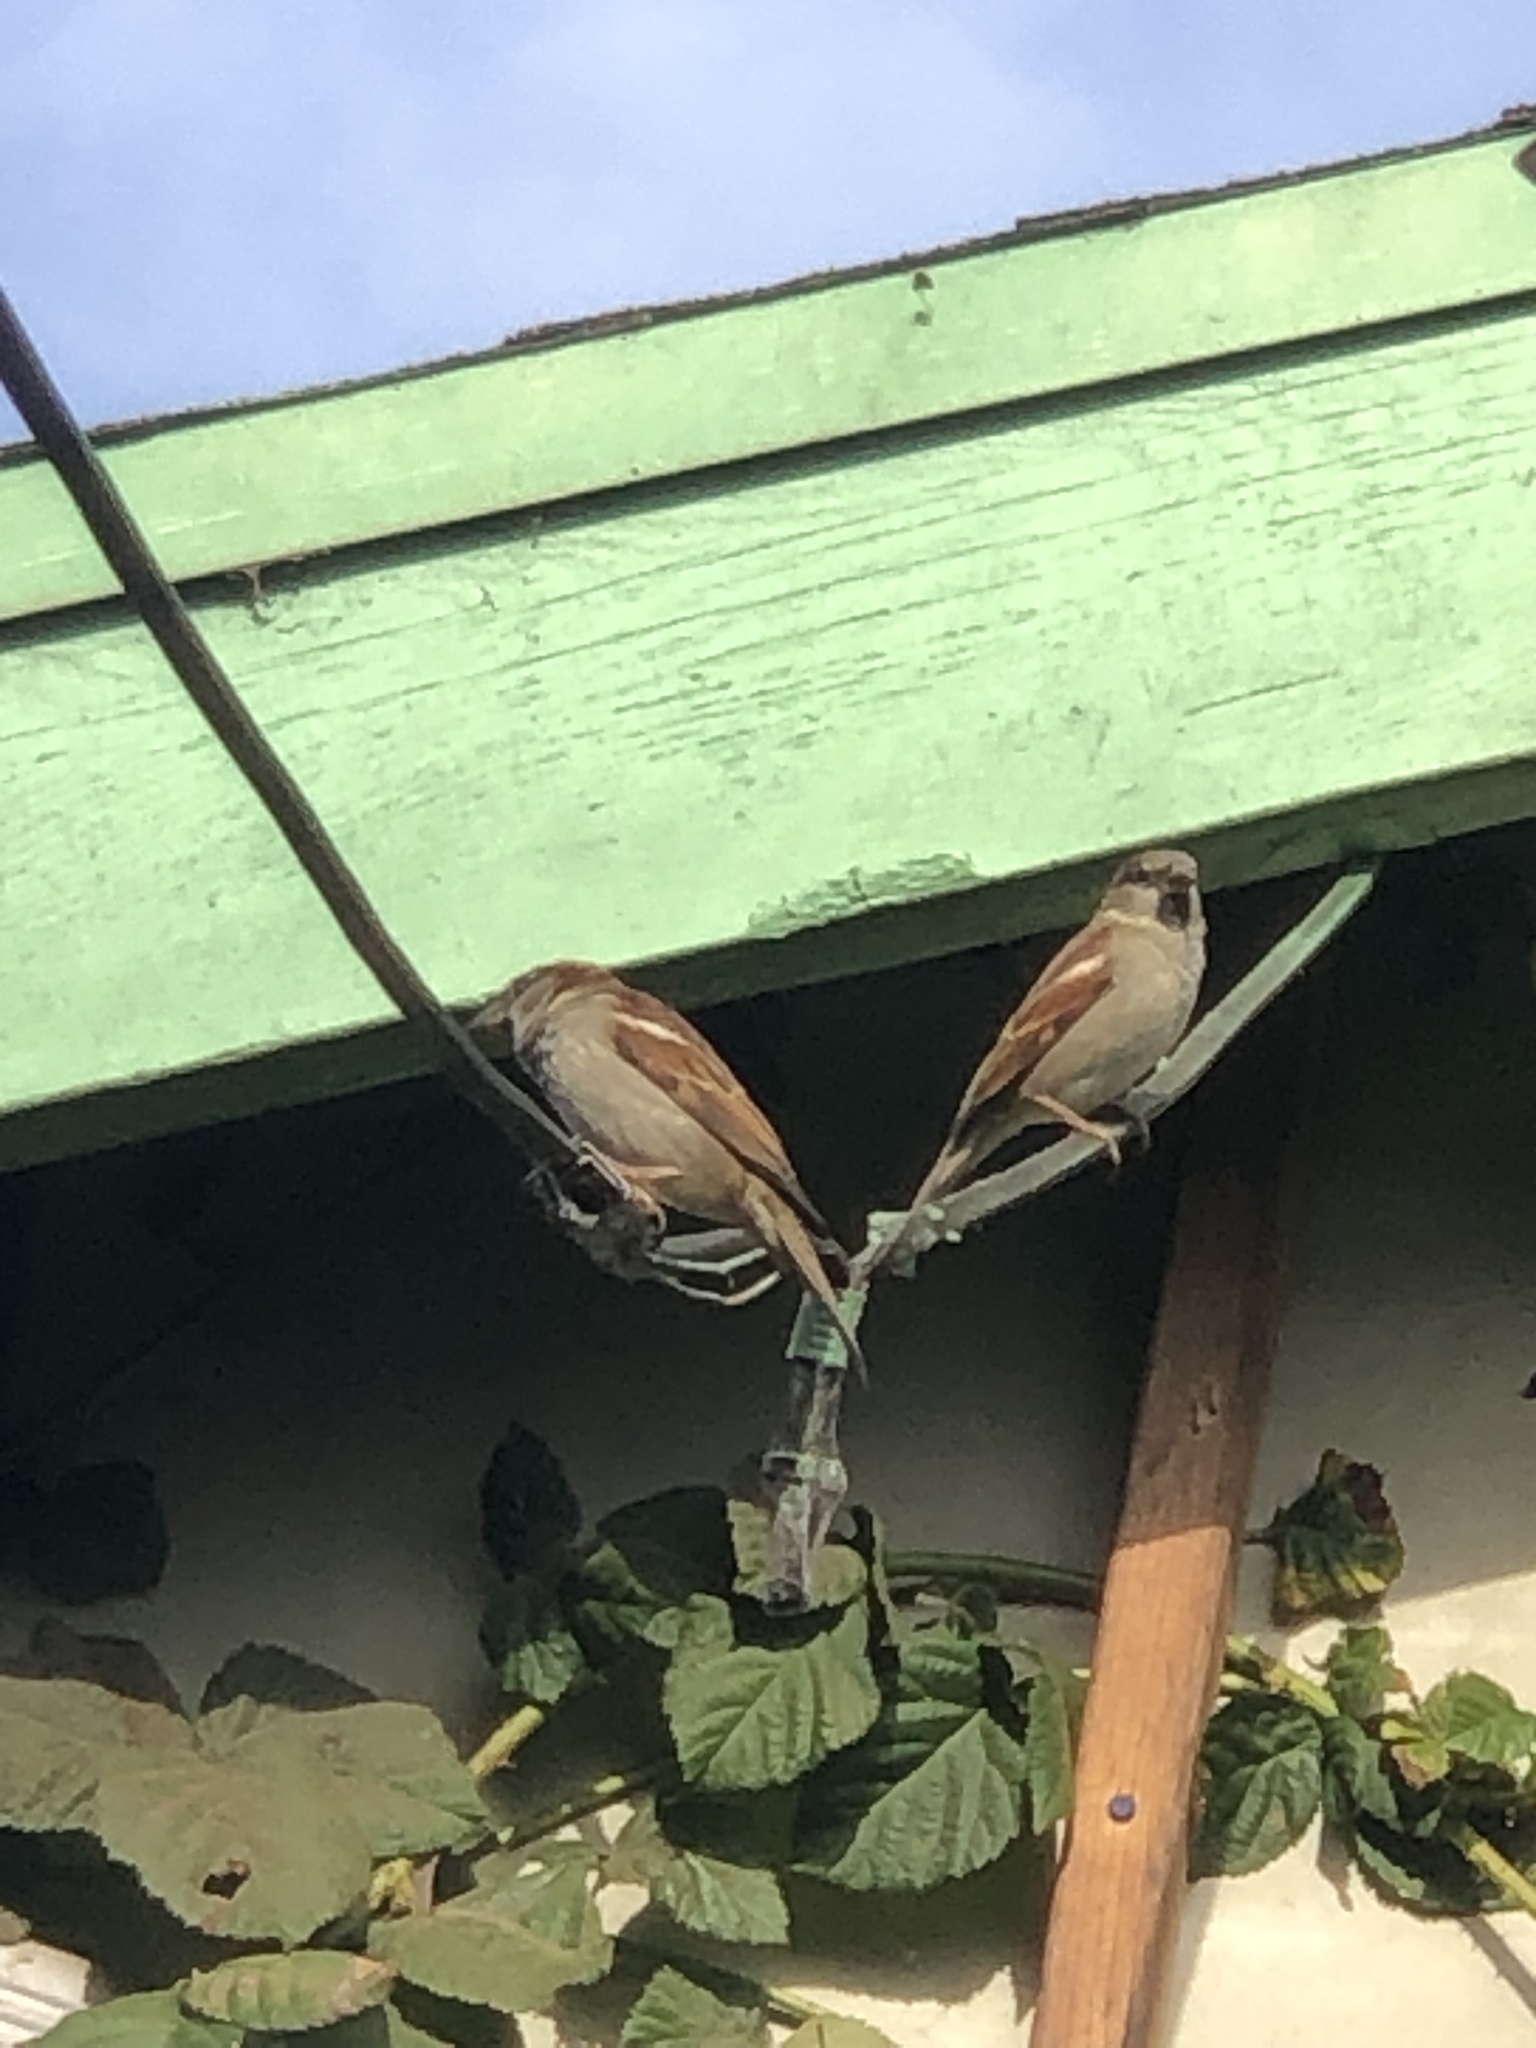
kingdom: Animalia
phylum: Chordata
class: Aves
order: Passeriformes
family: Passeridae
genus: Passer
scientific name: Passer domesticus
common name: House sparrow
